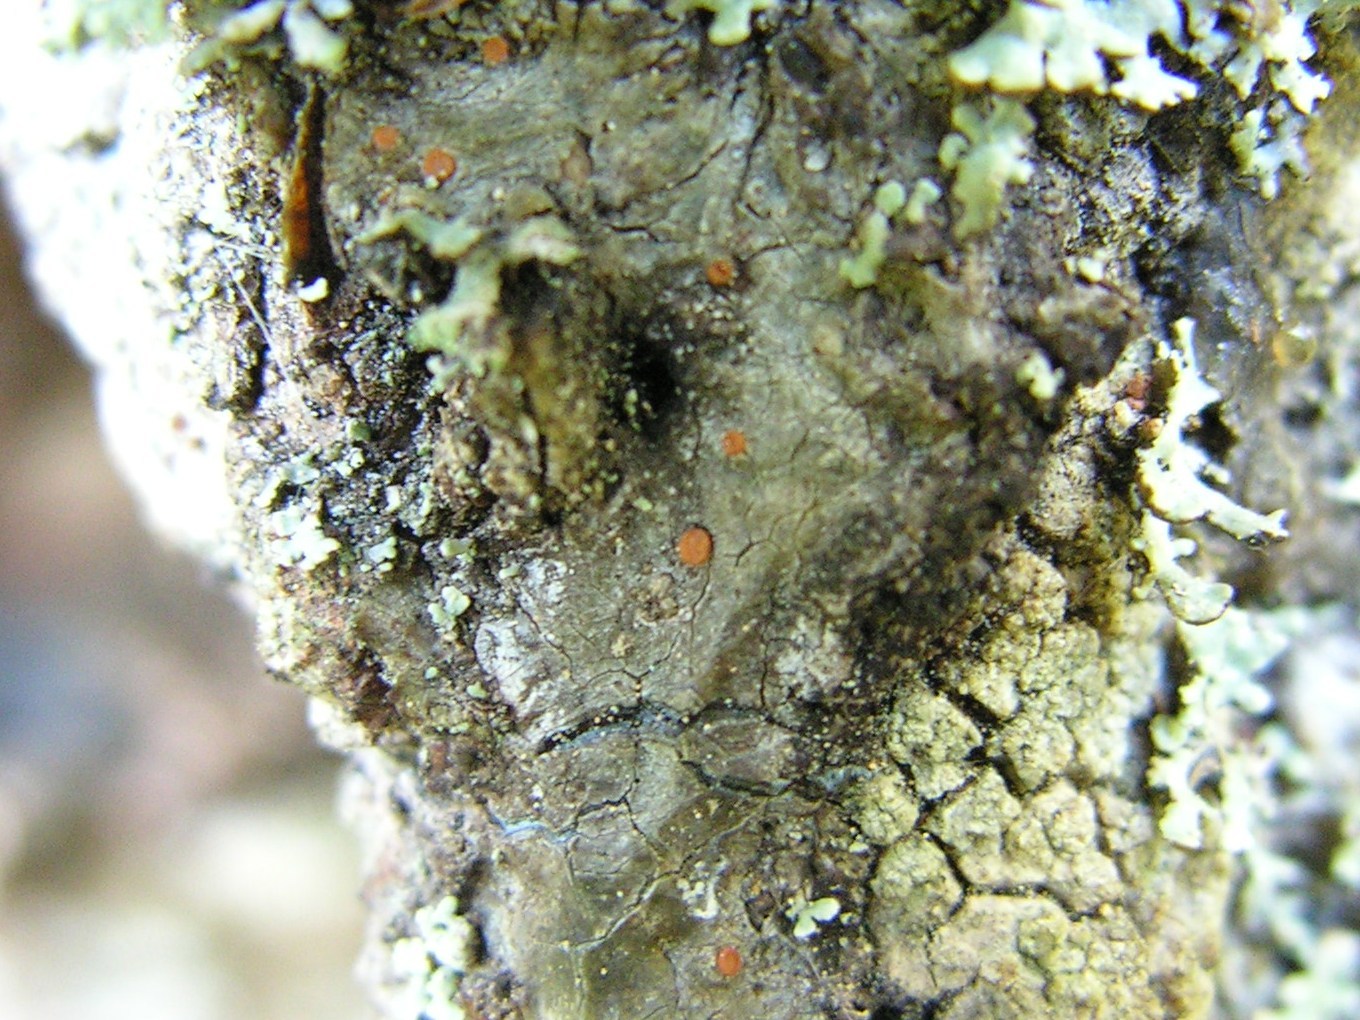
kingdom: Fungi
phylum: Ascomycota
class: Sareomycetes
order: Sareales
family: Sareaceae
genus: Sarea
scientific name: Sarea resinae
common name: Sarea lichen
